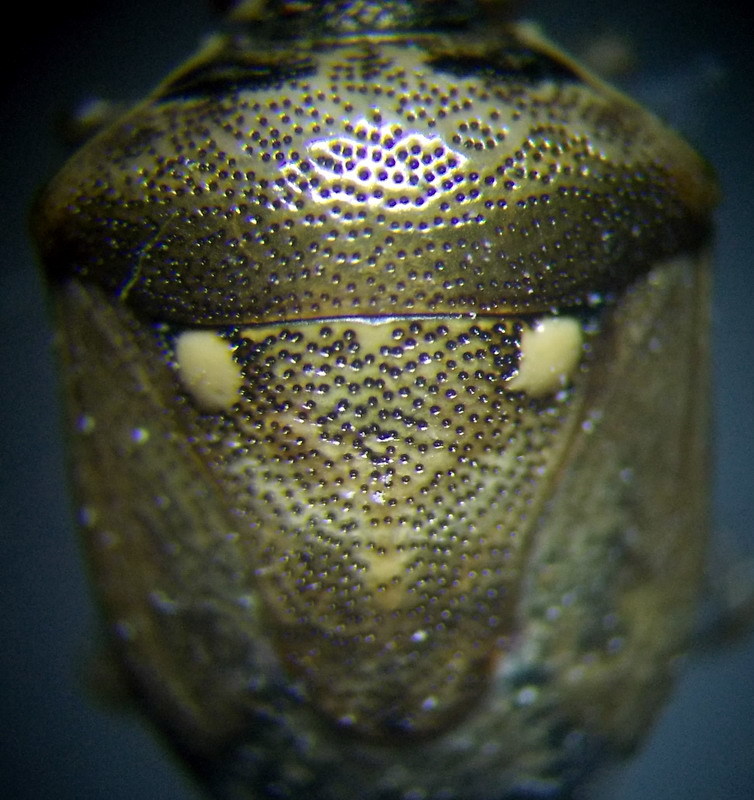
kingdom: Animalia
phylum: Arthropoda
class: Insecta
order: Hemiptera
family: Pentatomidae
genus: Eysarcoris
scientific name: Eysarcoris ventralis
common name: White-spotted stink bug
